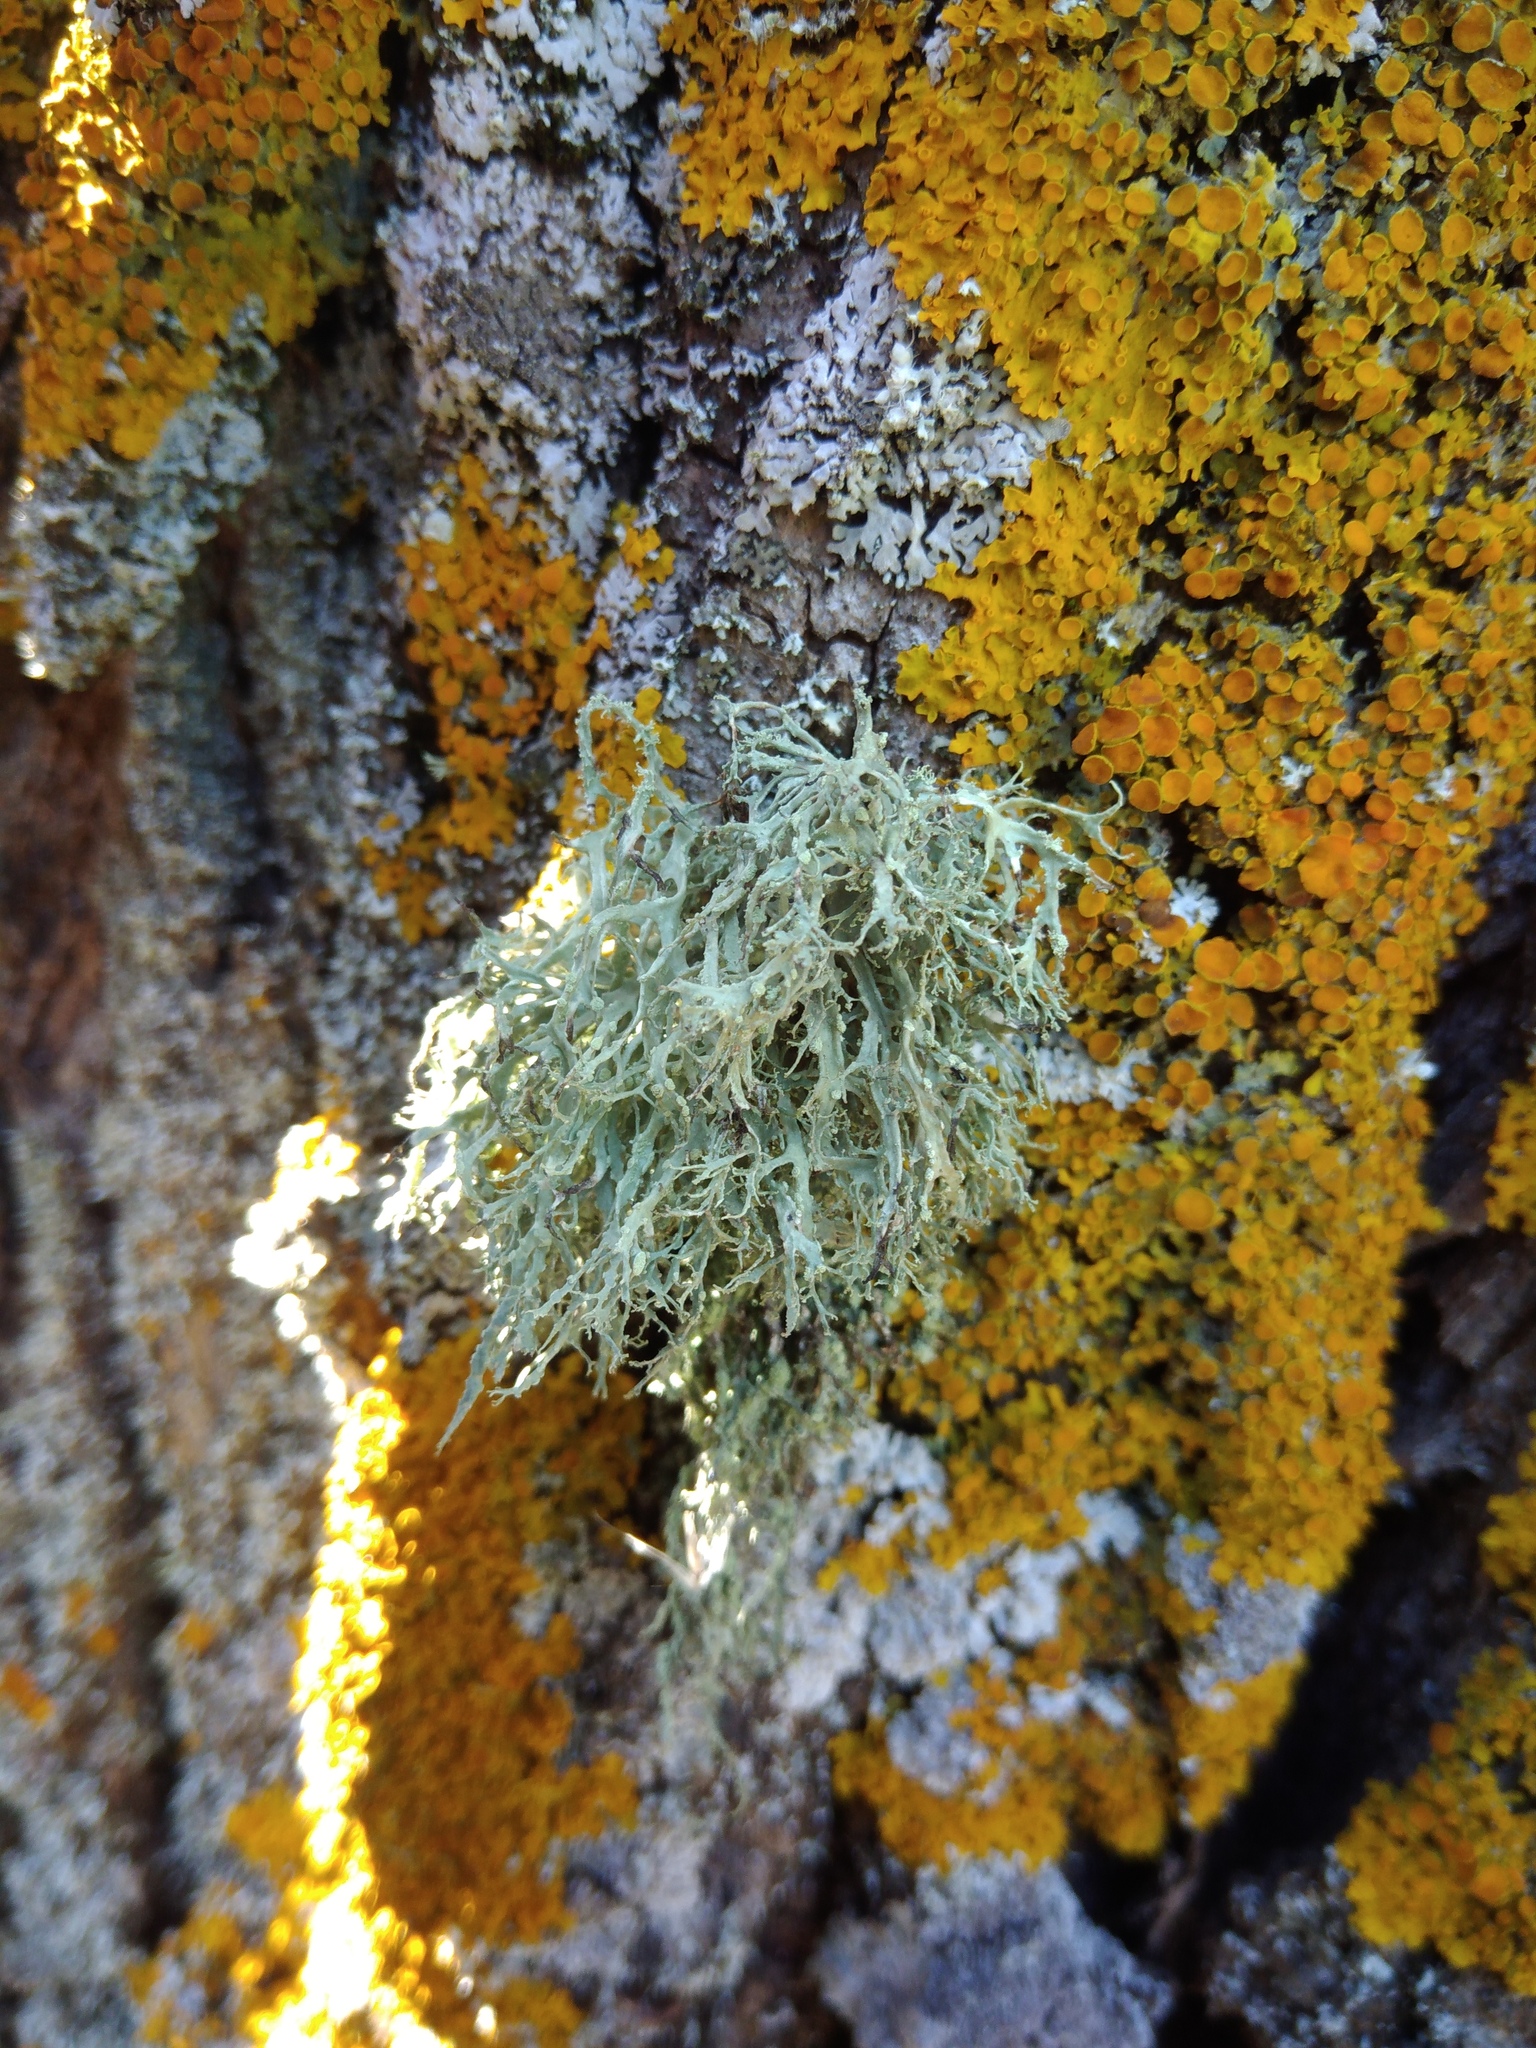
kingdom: Fungi
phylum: Ascomycota
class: Lecanoromycetes
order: Lecanorales
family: Ramalinaceae
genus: Ramalina
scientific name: Ramalina farinacea
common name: Farinose cartilage lichen
